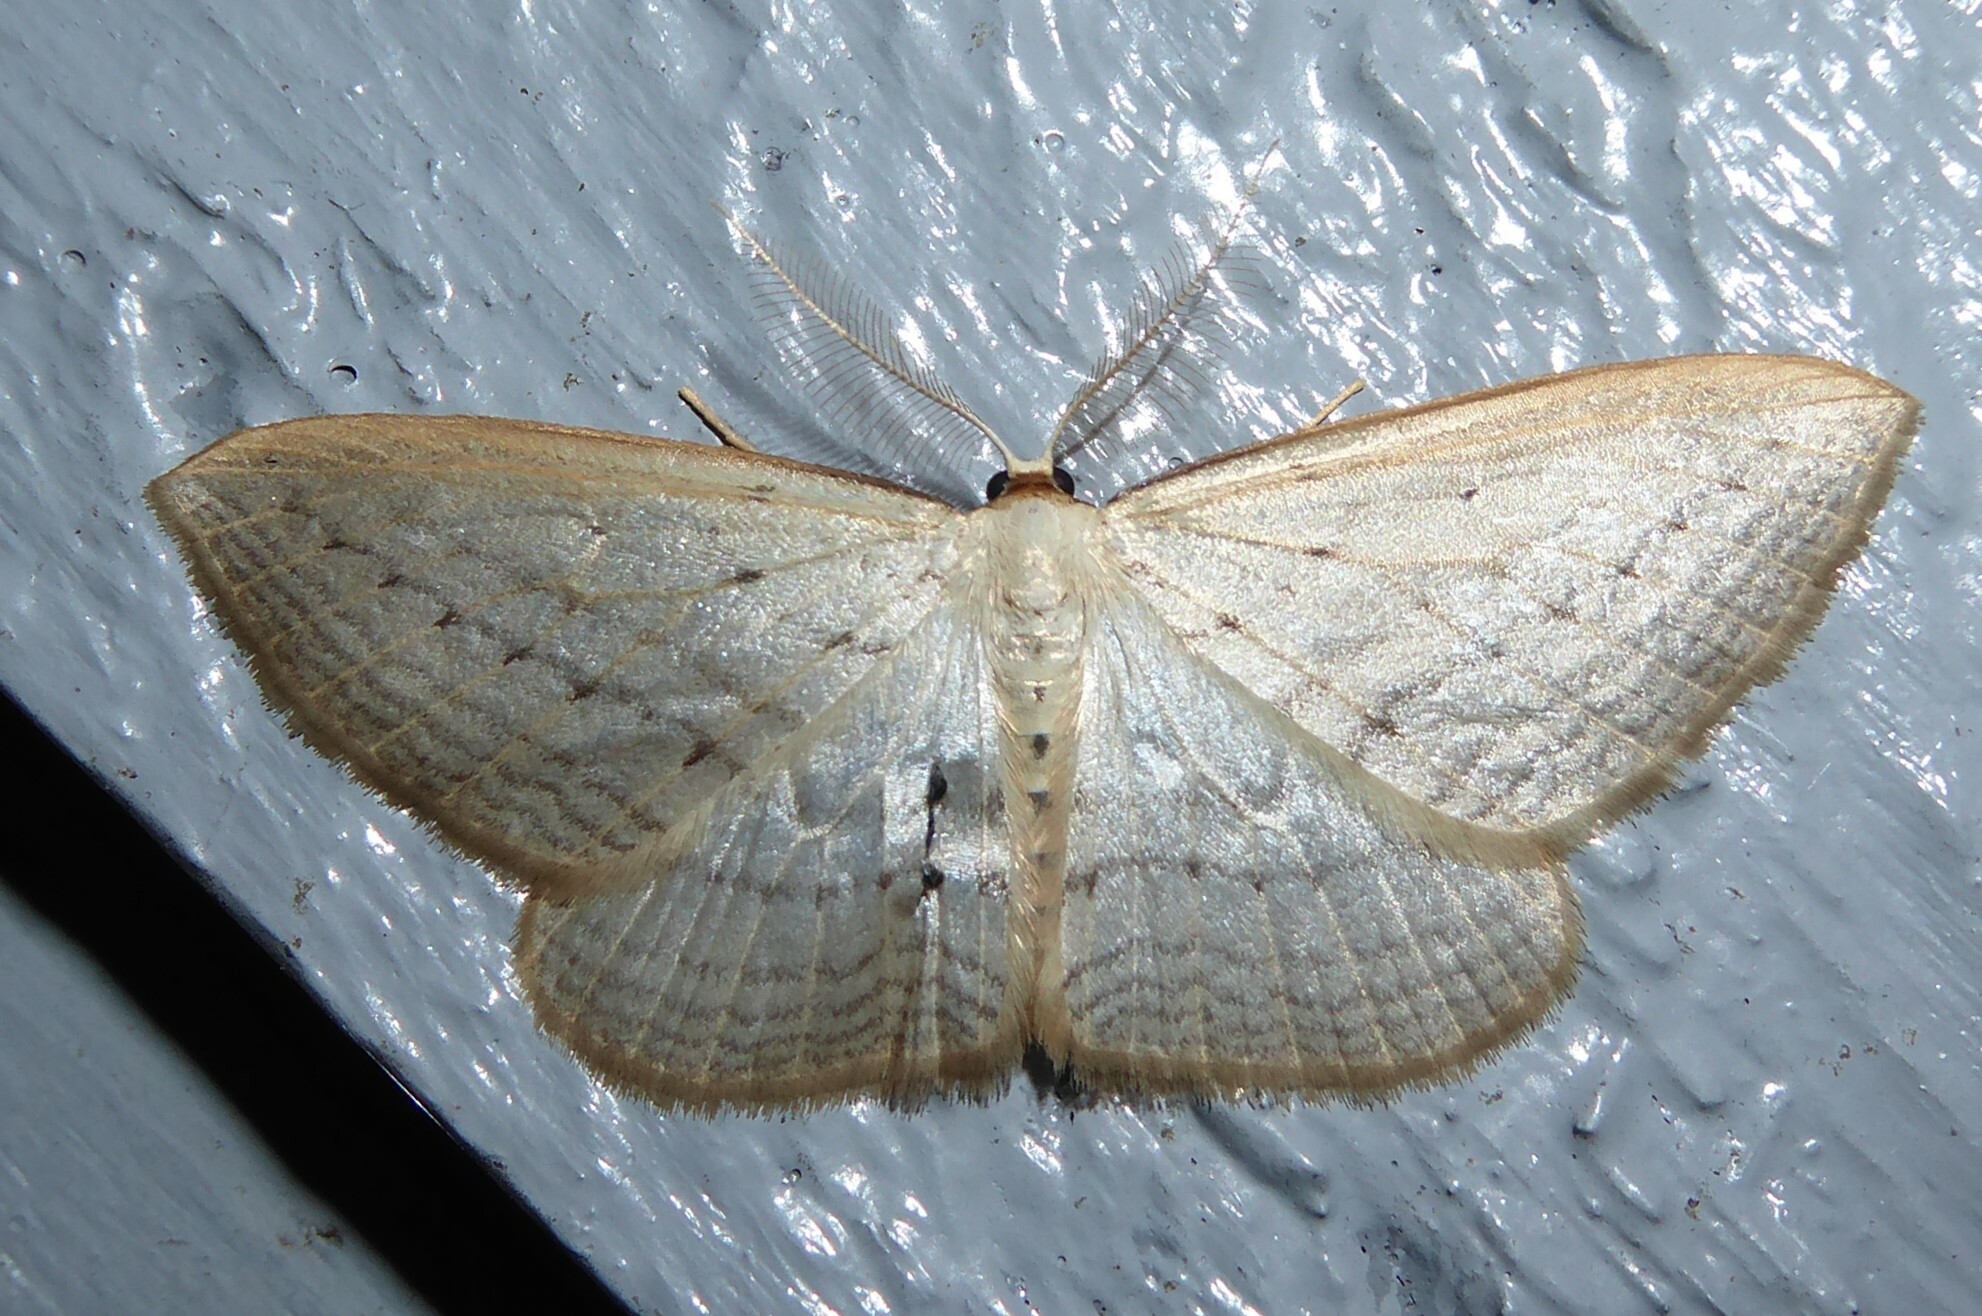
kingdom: Animalia
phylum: Arthropoda
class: Insecta
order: Lepidoptera
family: Geometridae
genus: Orthoclydon
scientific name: Orthoclydon praefectata
